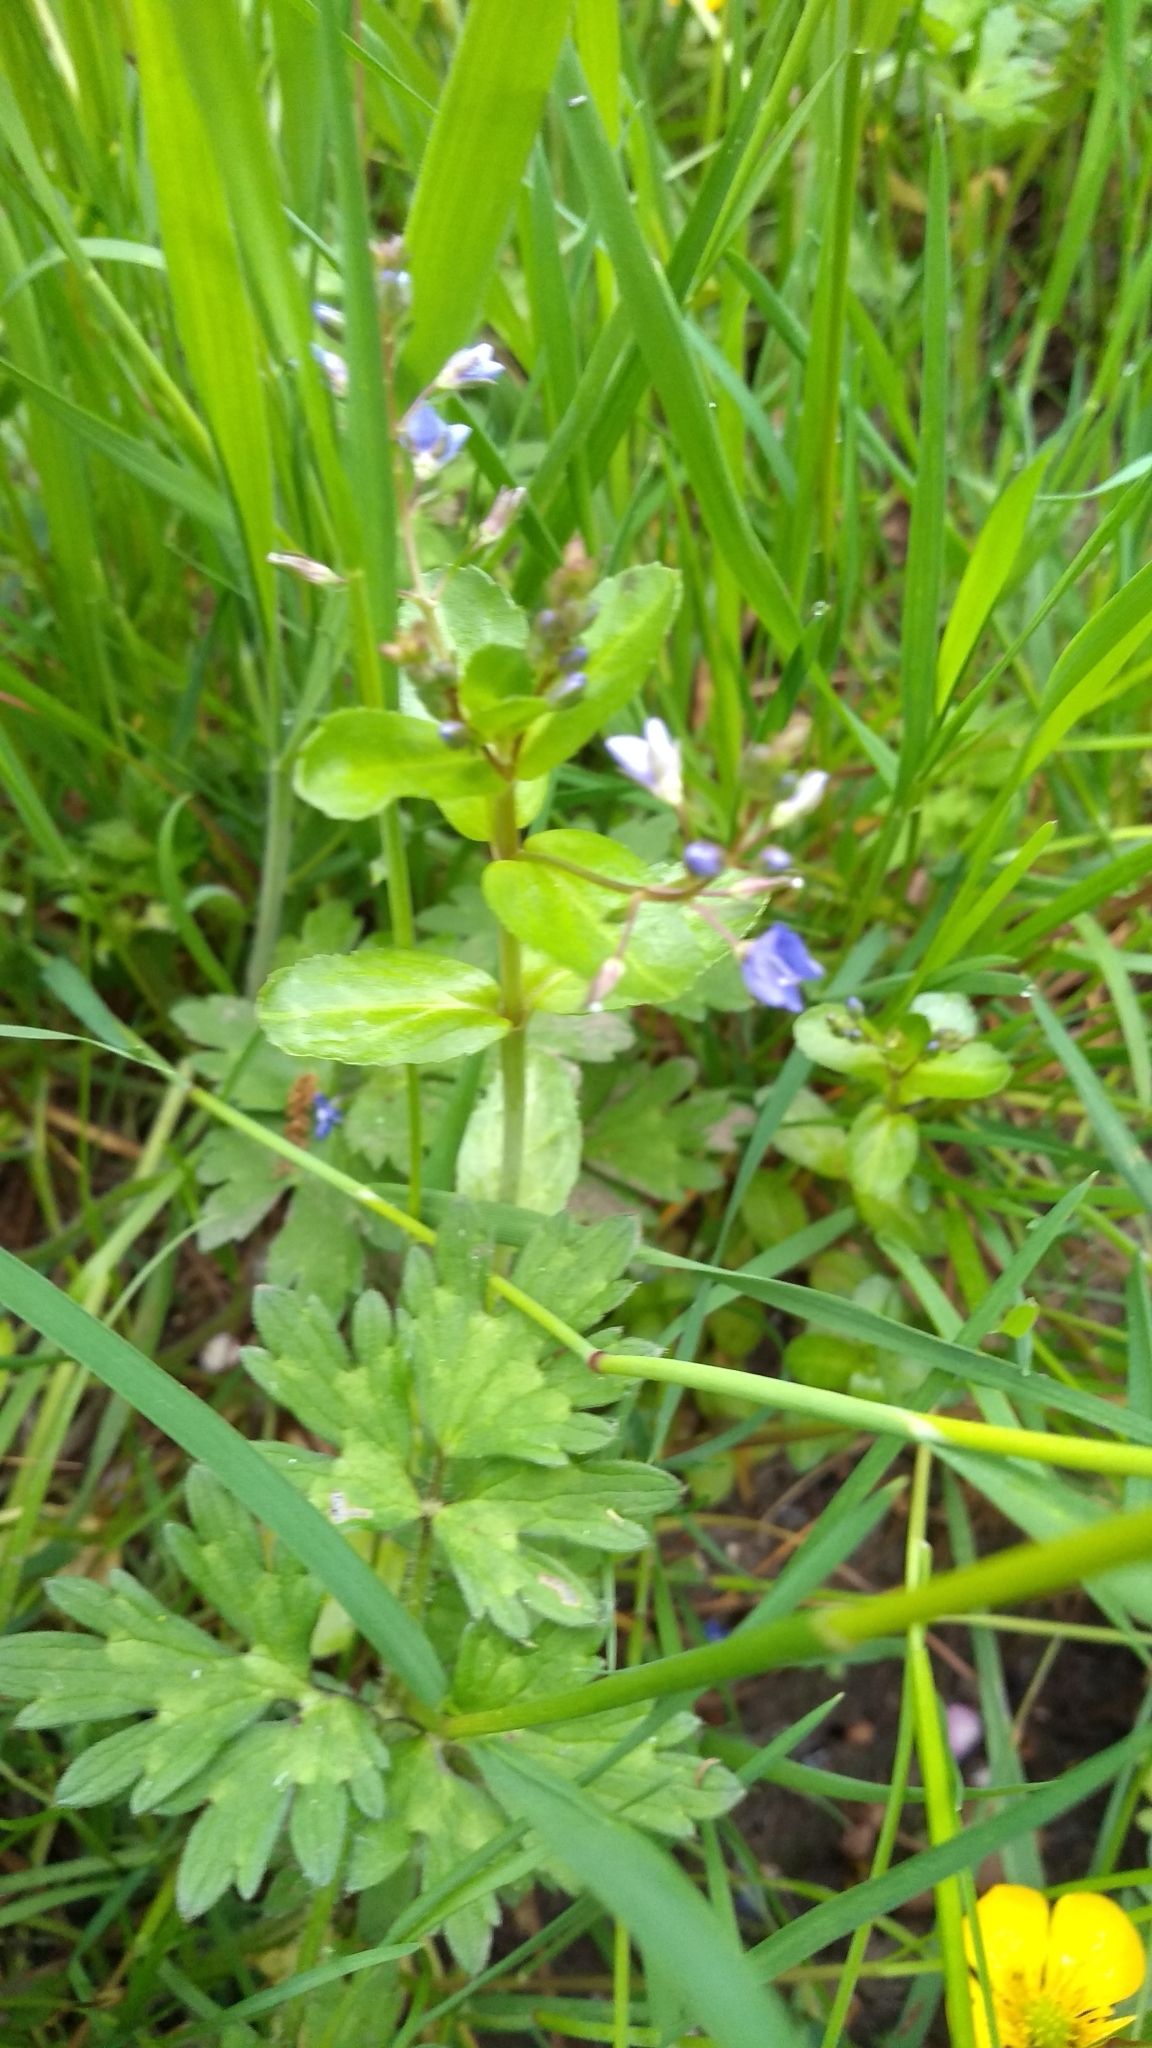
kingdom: Plantae
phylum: Tracheophyta
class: Magnoliopsida
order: Lamiales
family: Plantaginaceae
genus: Veronica
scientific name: Veronica beccabunga
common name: Brooklime
